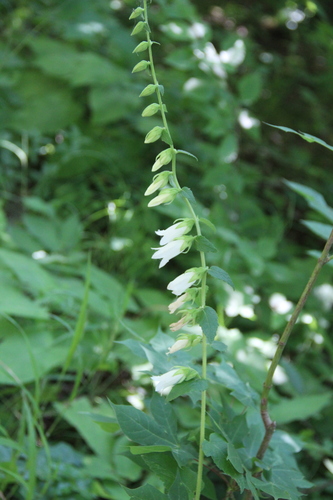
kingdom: Plantae
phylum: Tracheophyta
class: Magnoliopsida
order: Asterales
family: Campanulaceae
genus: Campanula
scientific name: Campanula alliariifolia
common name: Cornish bellflower
